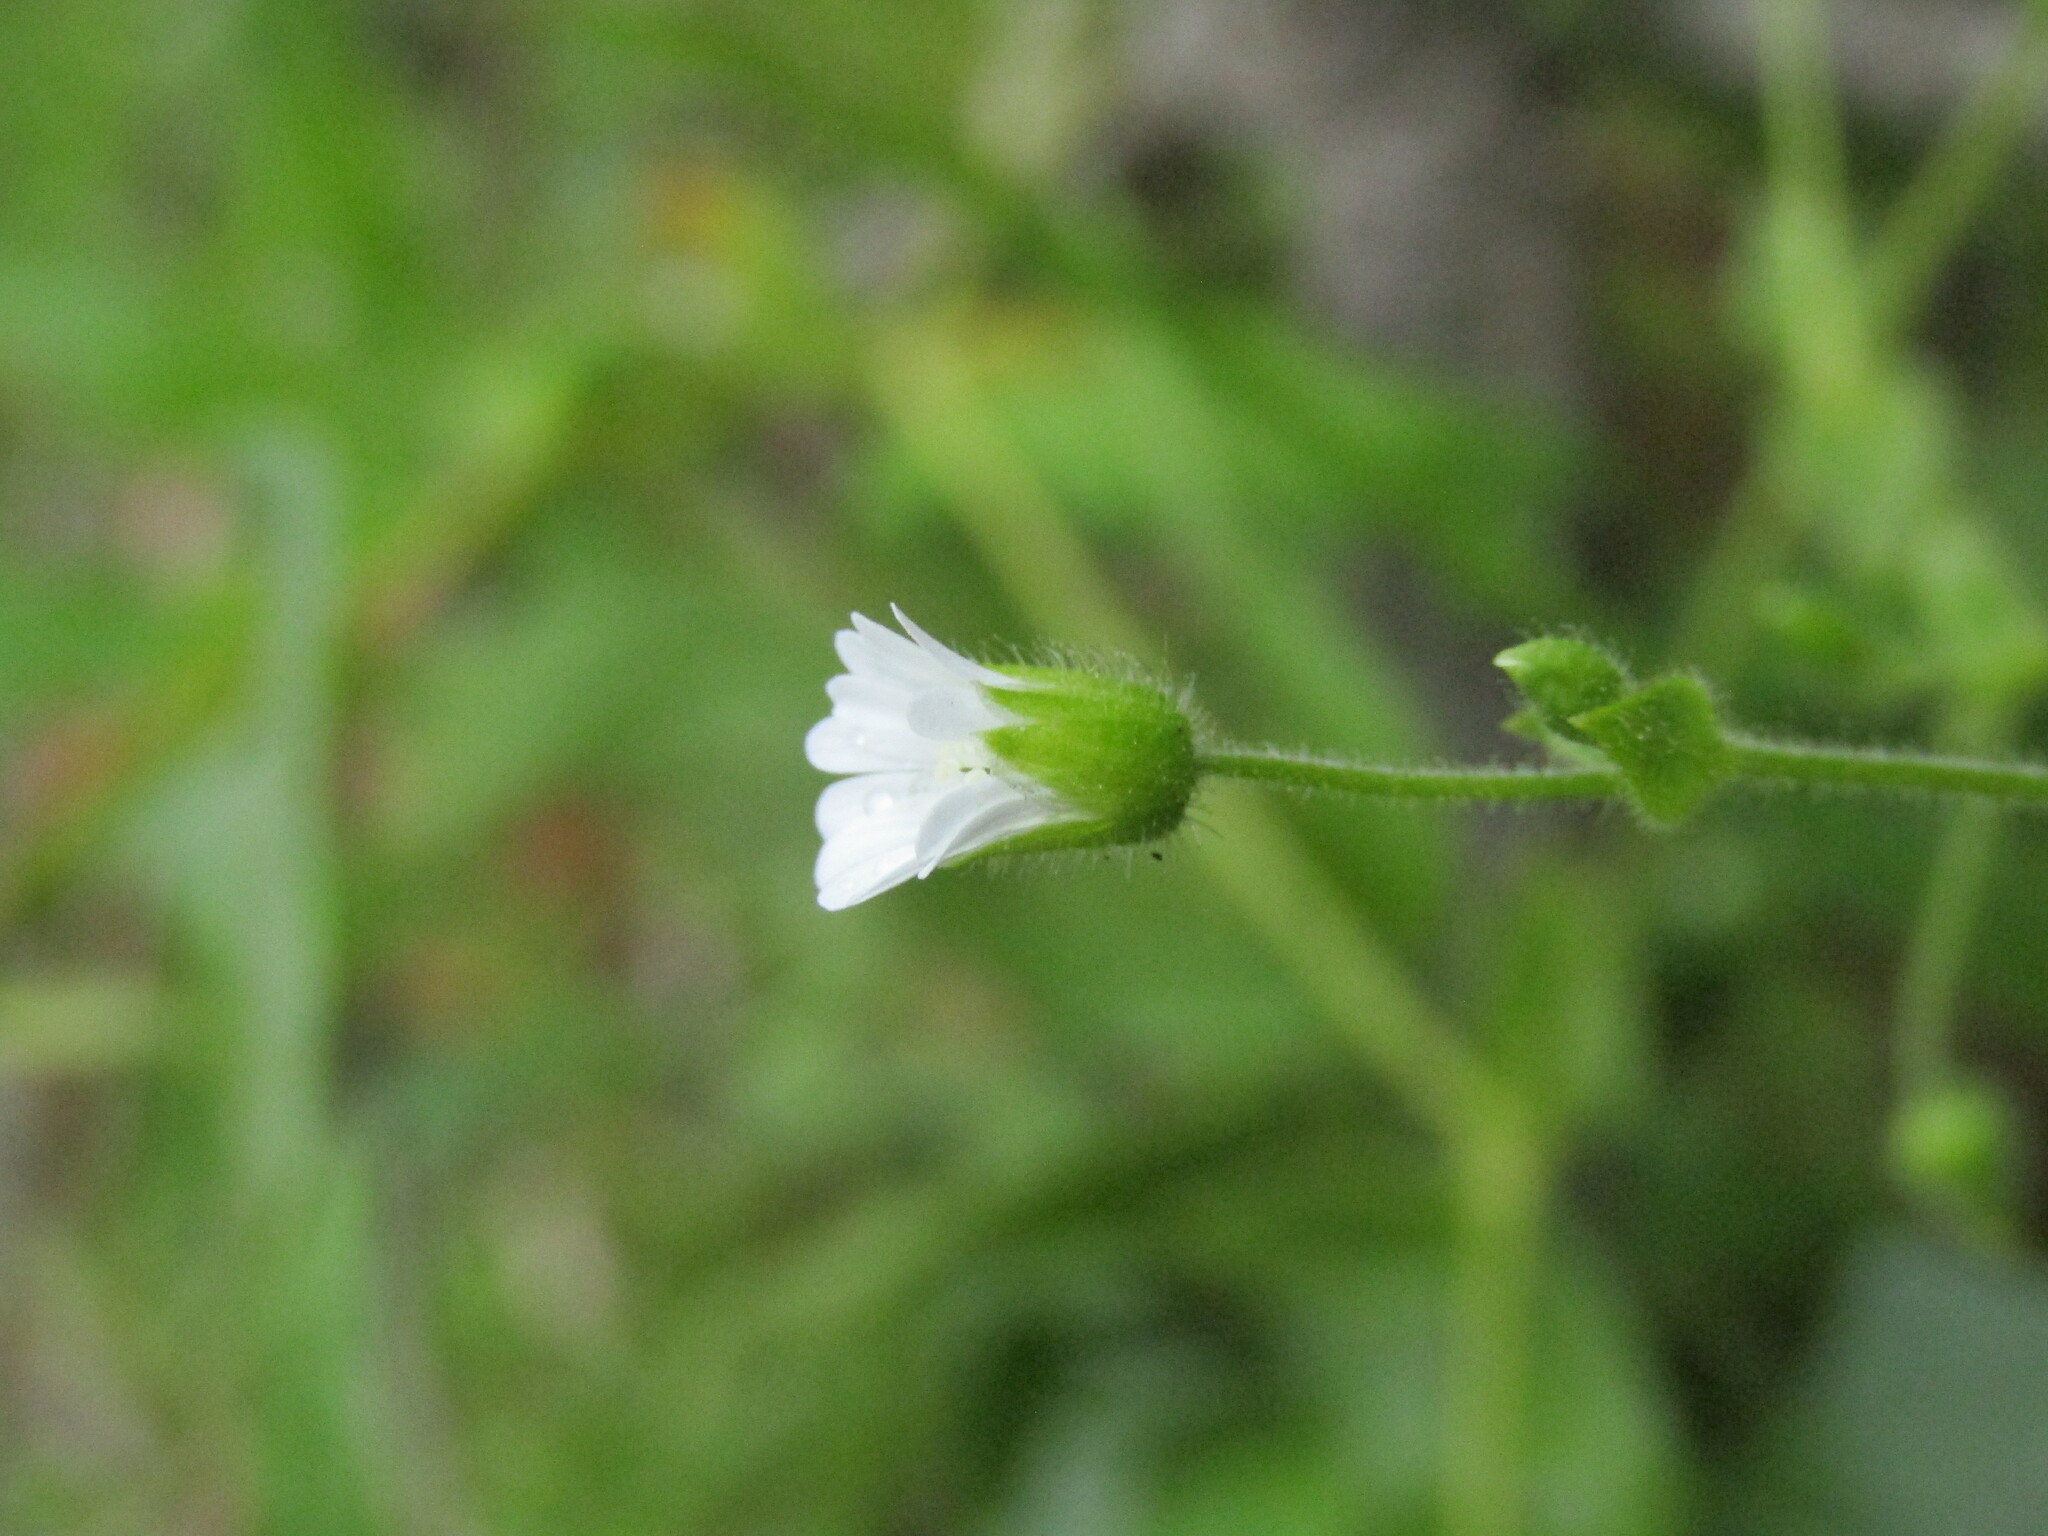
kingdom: Plantae
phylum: Tracheophyta
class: Magnoliopsida
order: Caryophyllales
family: Caryophyllaceae
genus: Stellaria
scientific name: Stellaria arvalis
